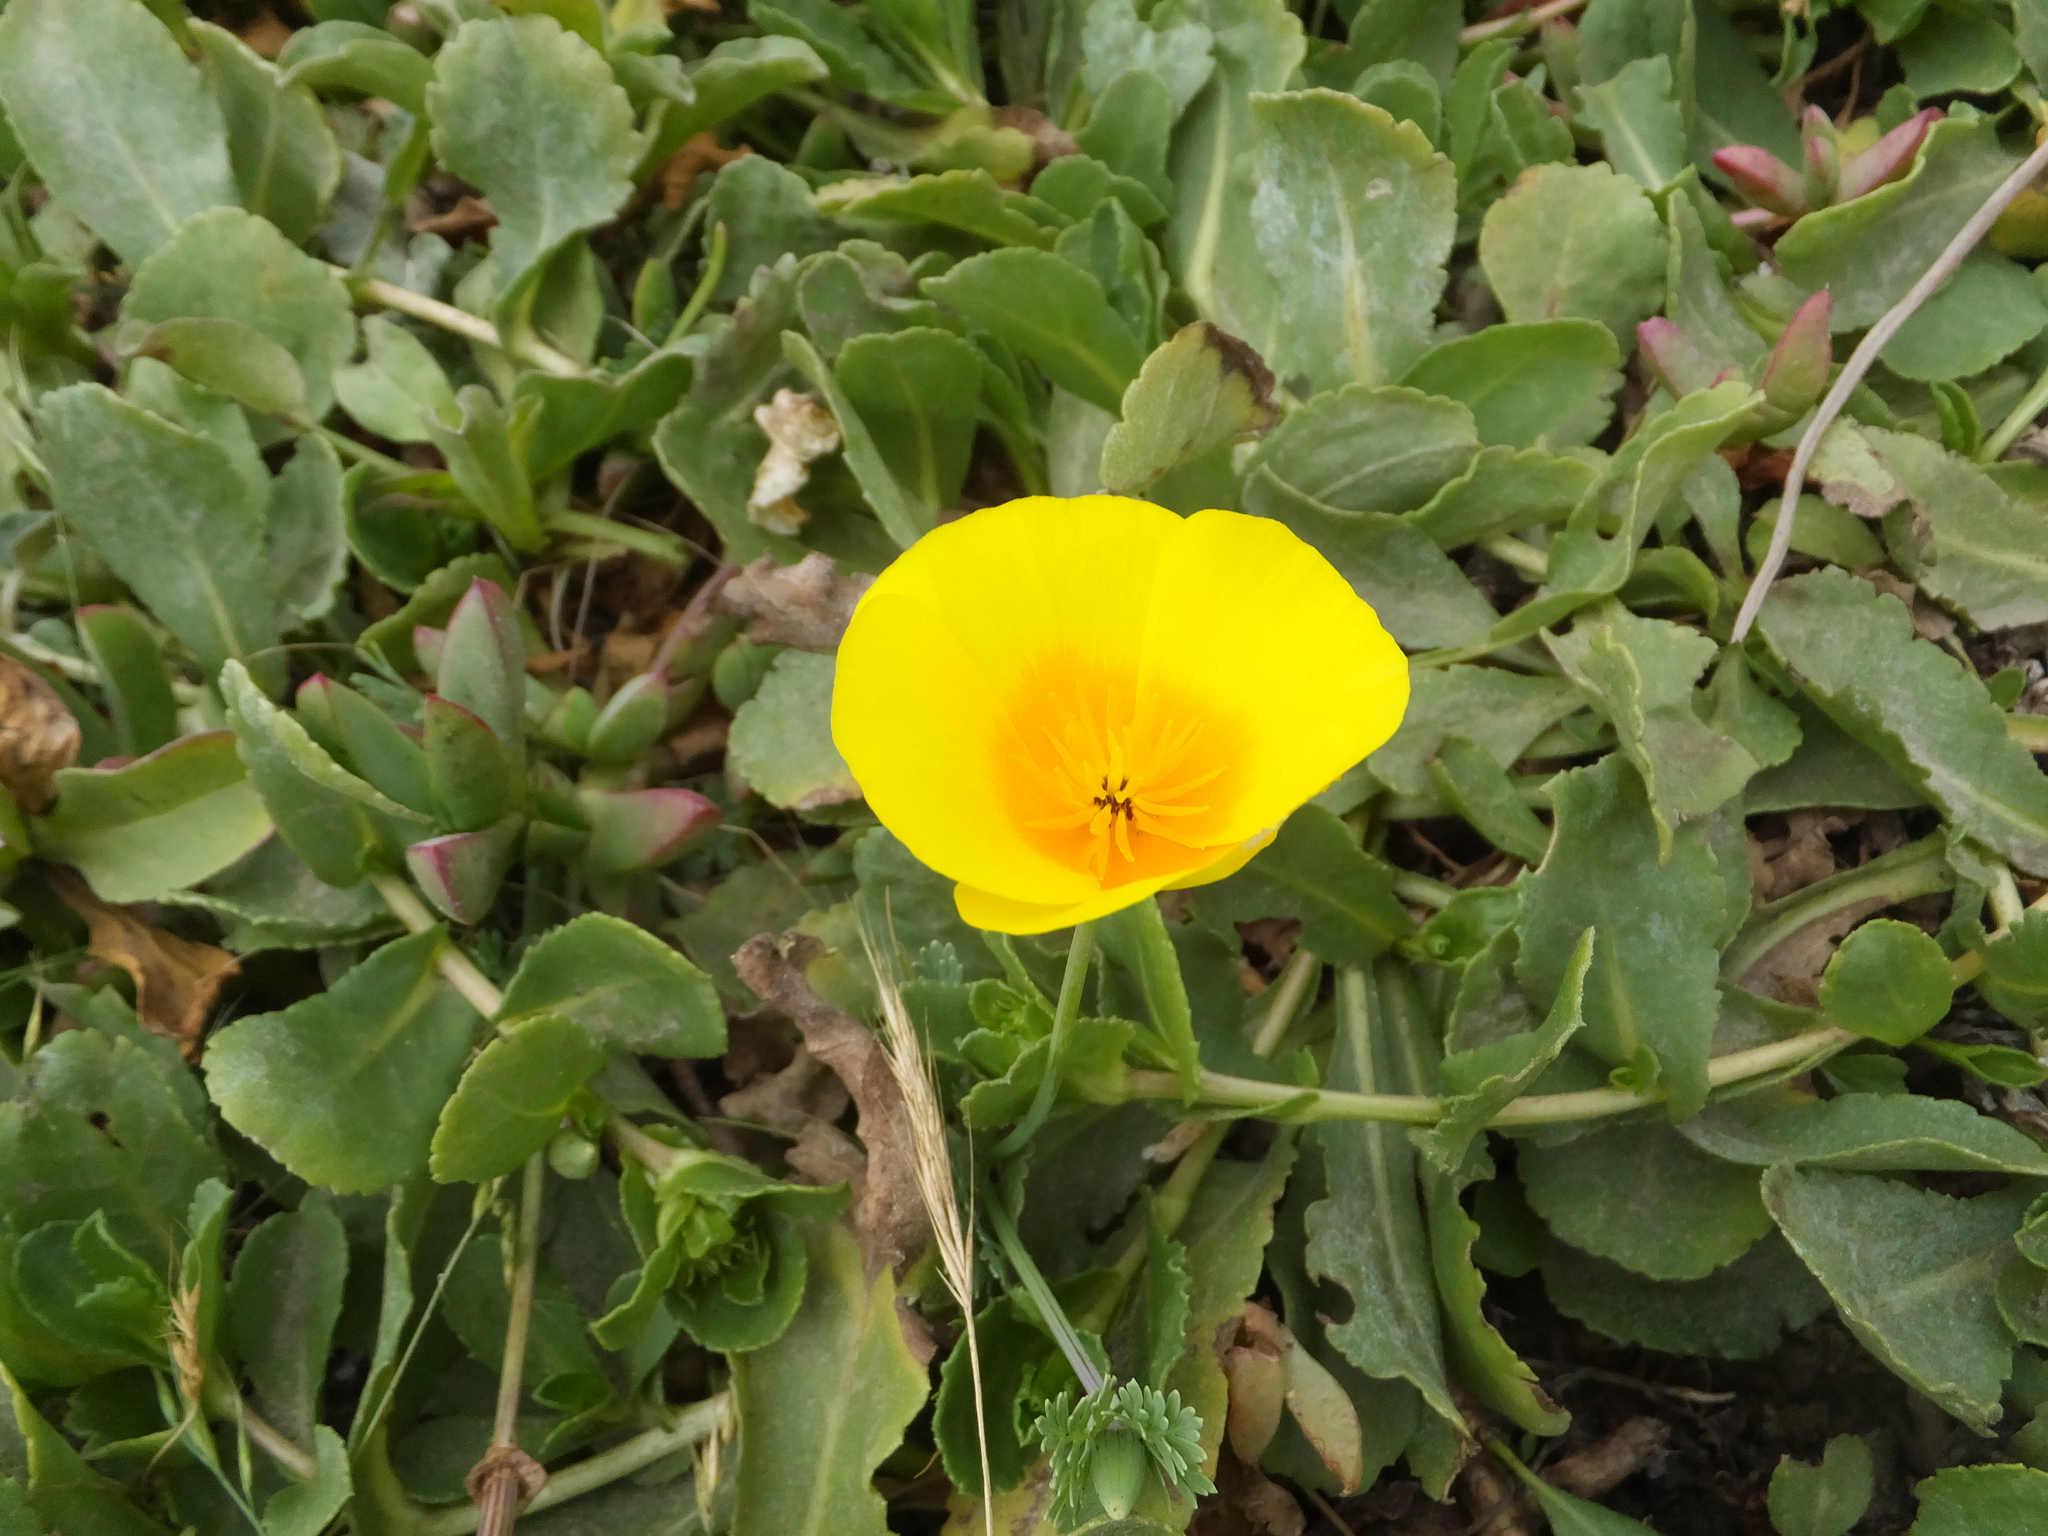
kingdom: Plantae
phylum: Tracheophyta
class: Magnoliopsida
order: Ranunculales
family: Papaveraceae
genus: Eschscholzia
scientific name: Eschscholzia californica
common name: California poppy
